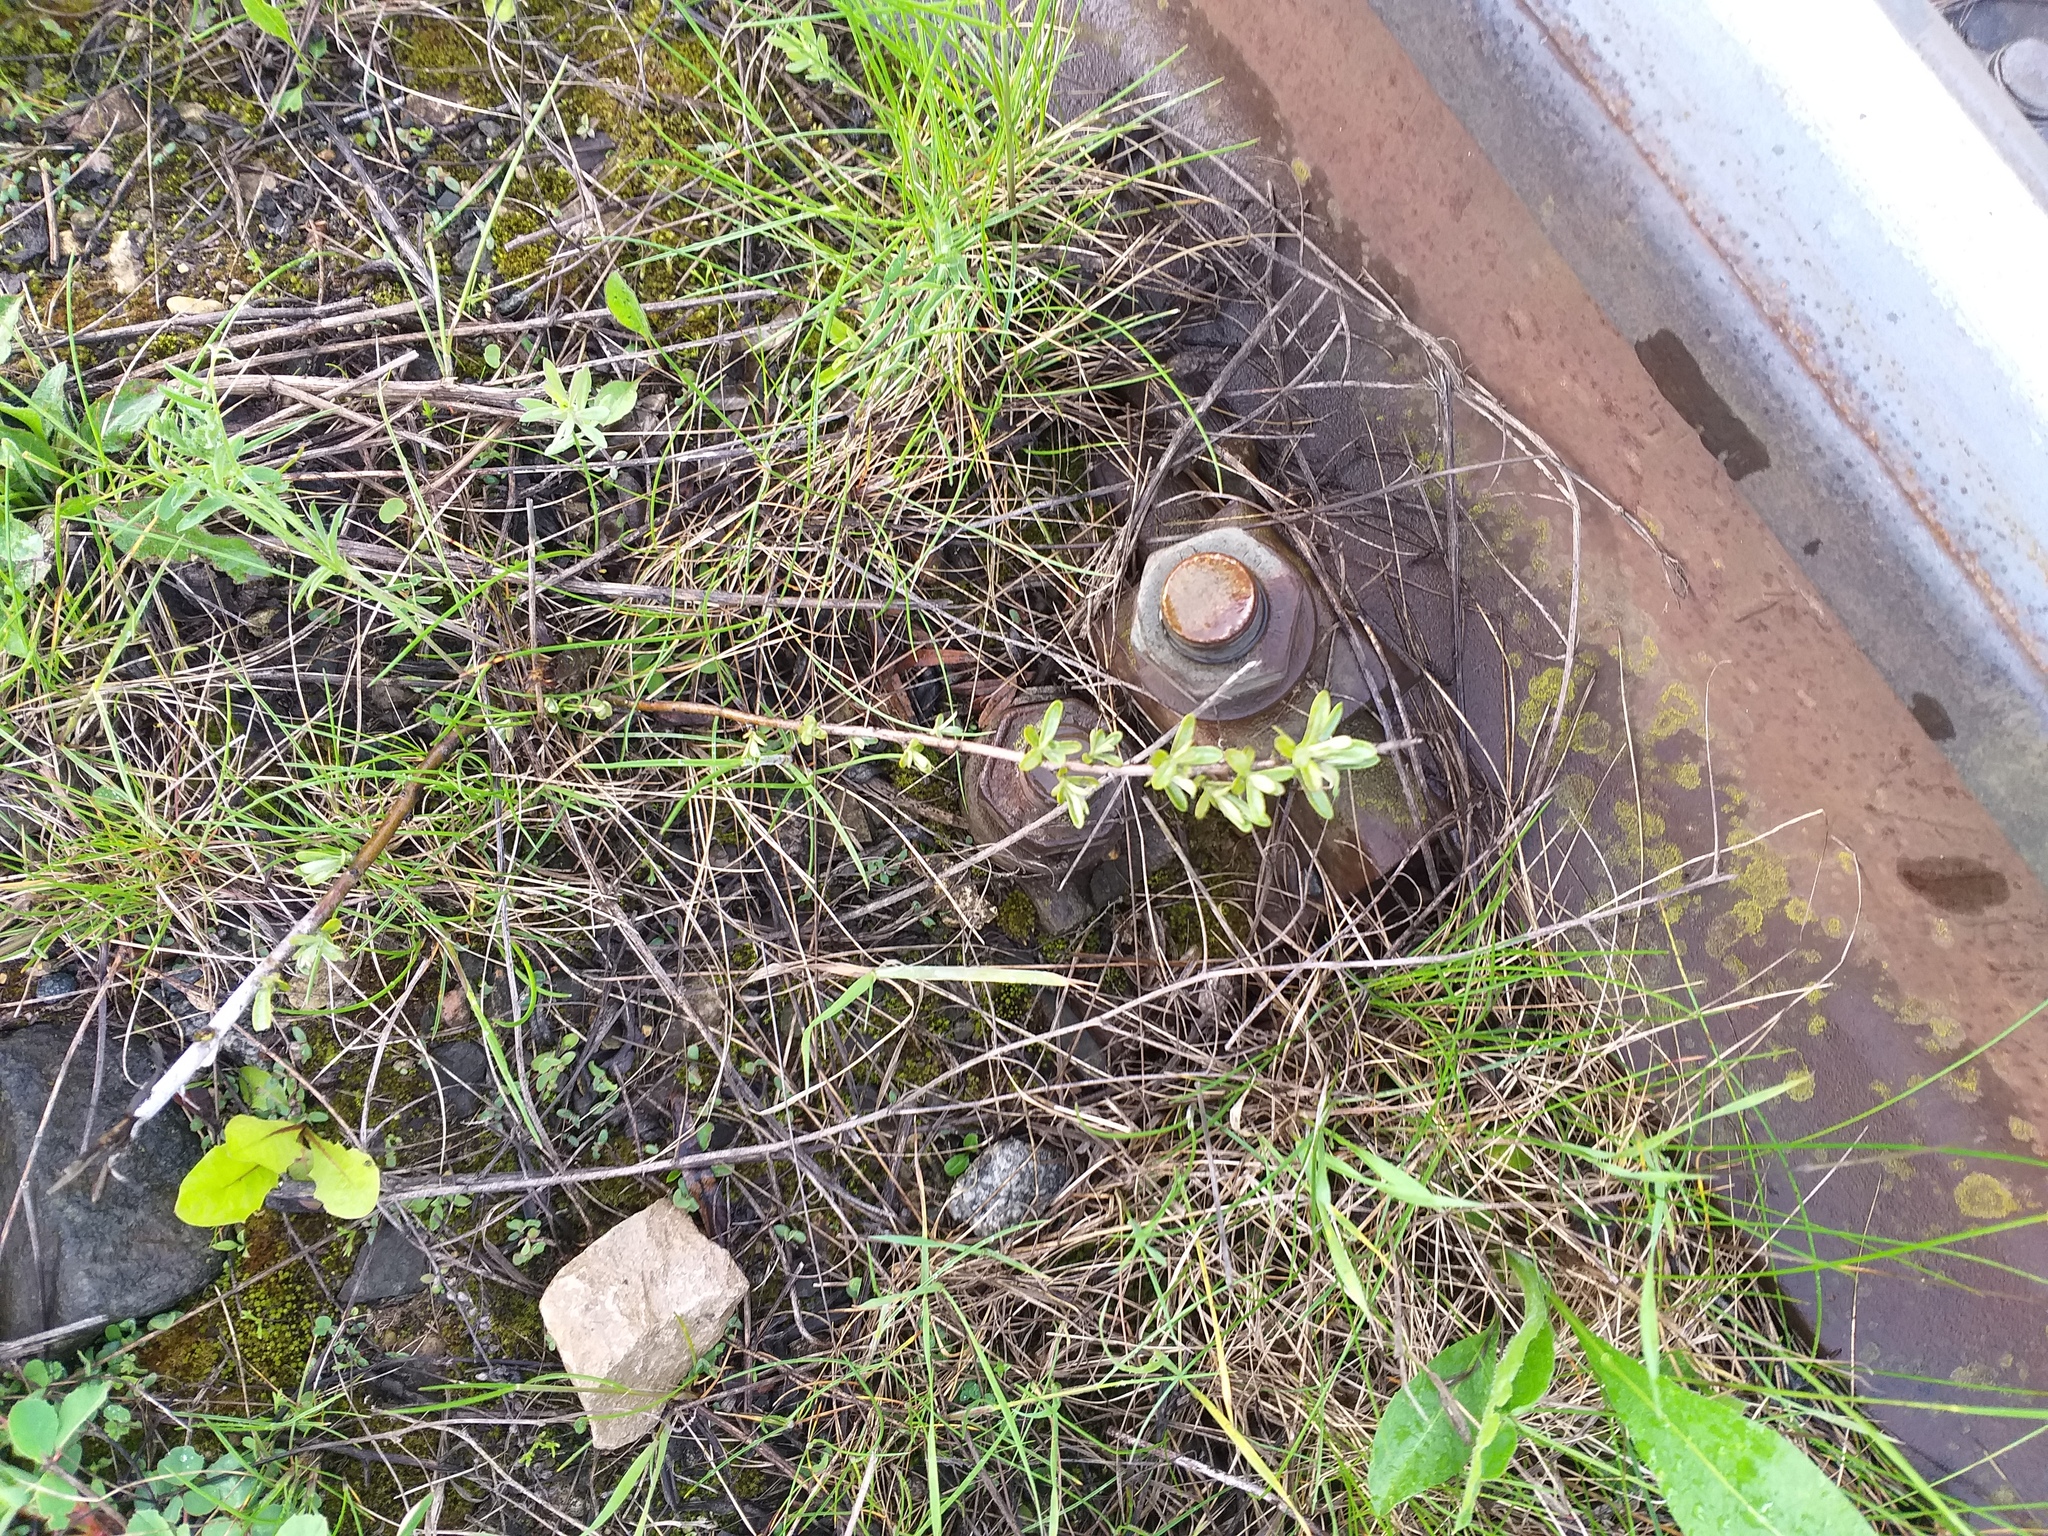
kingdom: Plantae
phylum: Tracheophyta
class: Magnoliopsida
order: Rosales
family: Elaeagnaceae
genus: Hippophae
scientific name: Hippophae rhamnoides
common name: Sea-buckthorn
